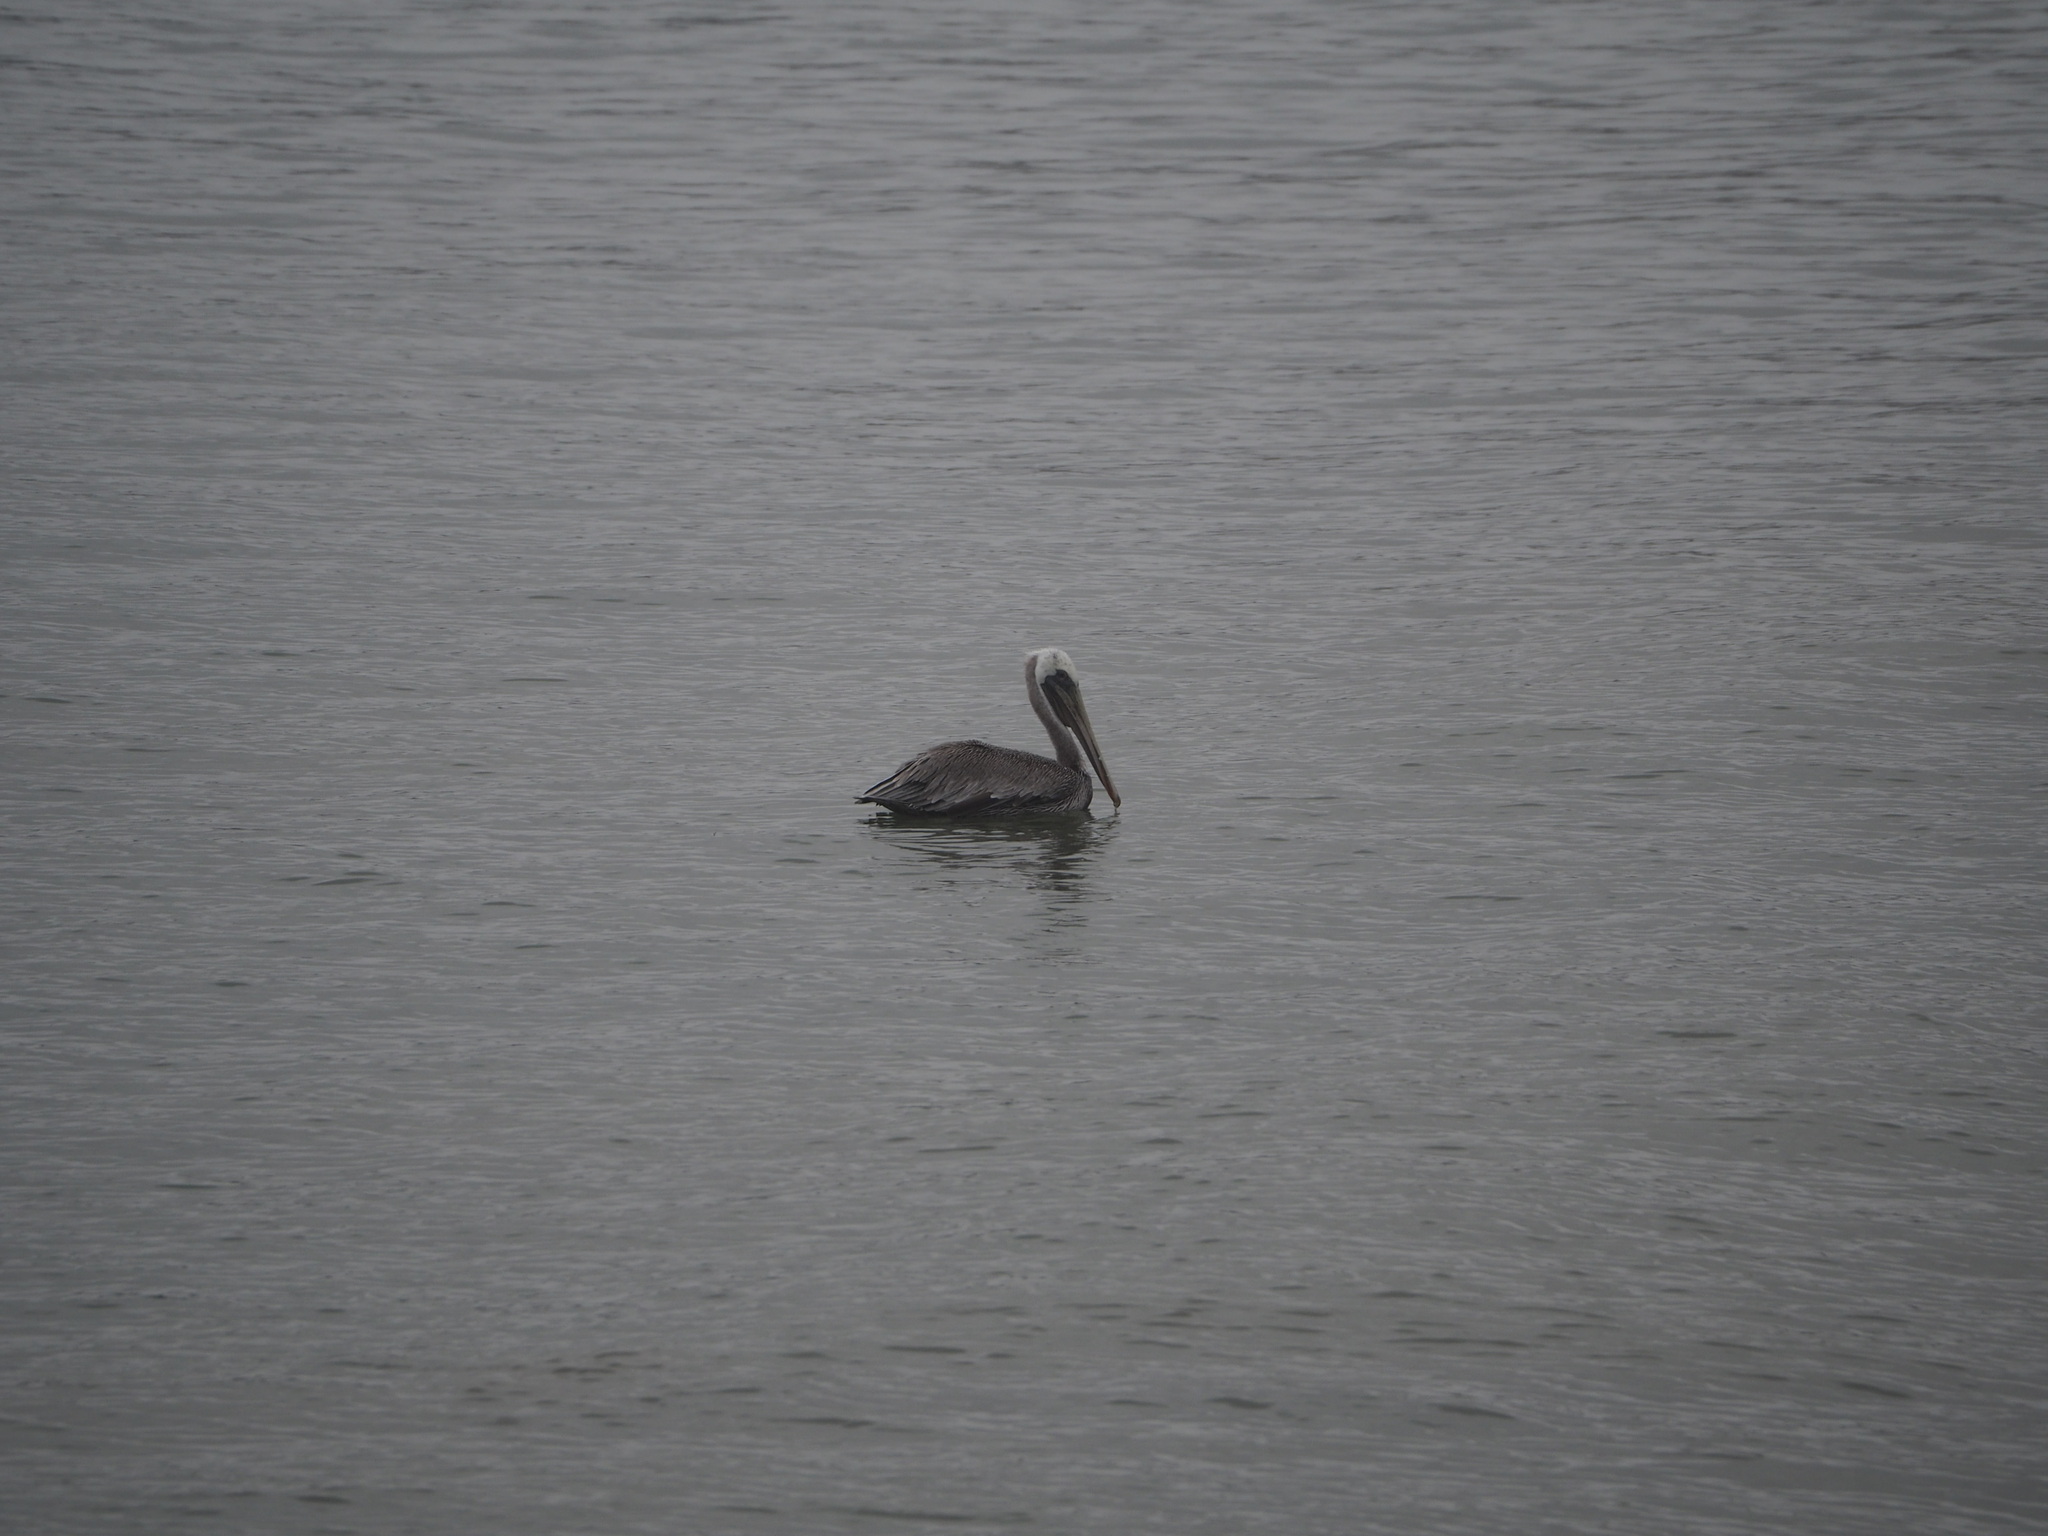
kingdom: Animalia
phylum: Chordata
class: Aves
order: Pelecaniformes
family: Pelecanidae
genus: Pelecanus
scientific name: Pelecanus occidentalis
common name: Brown pelican
